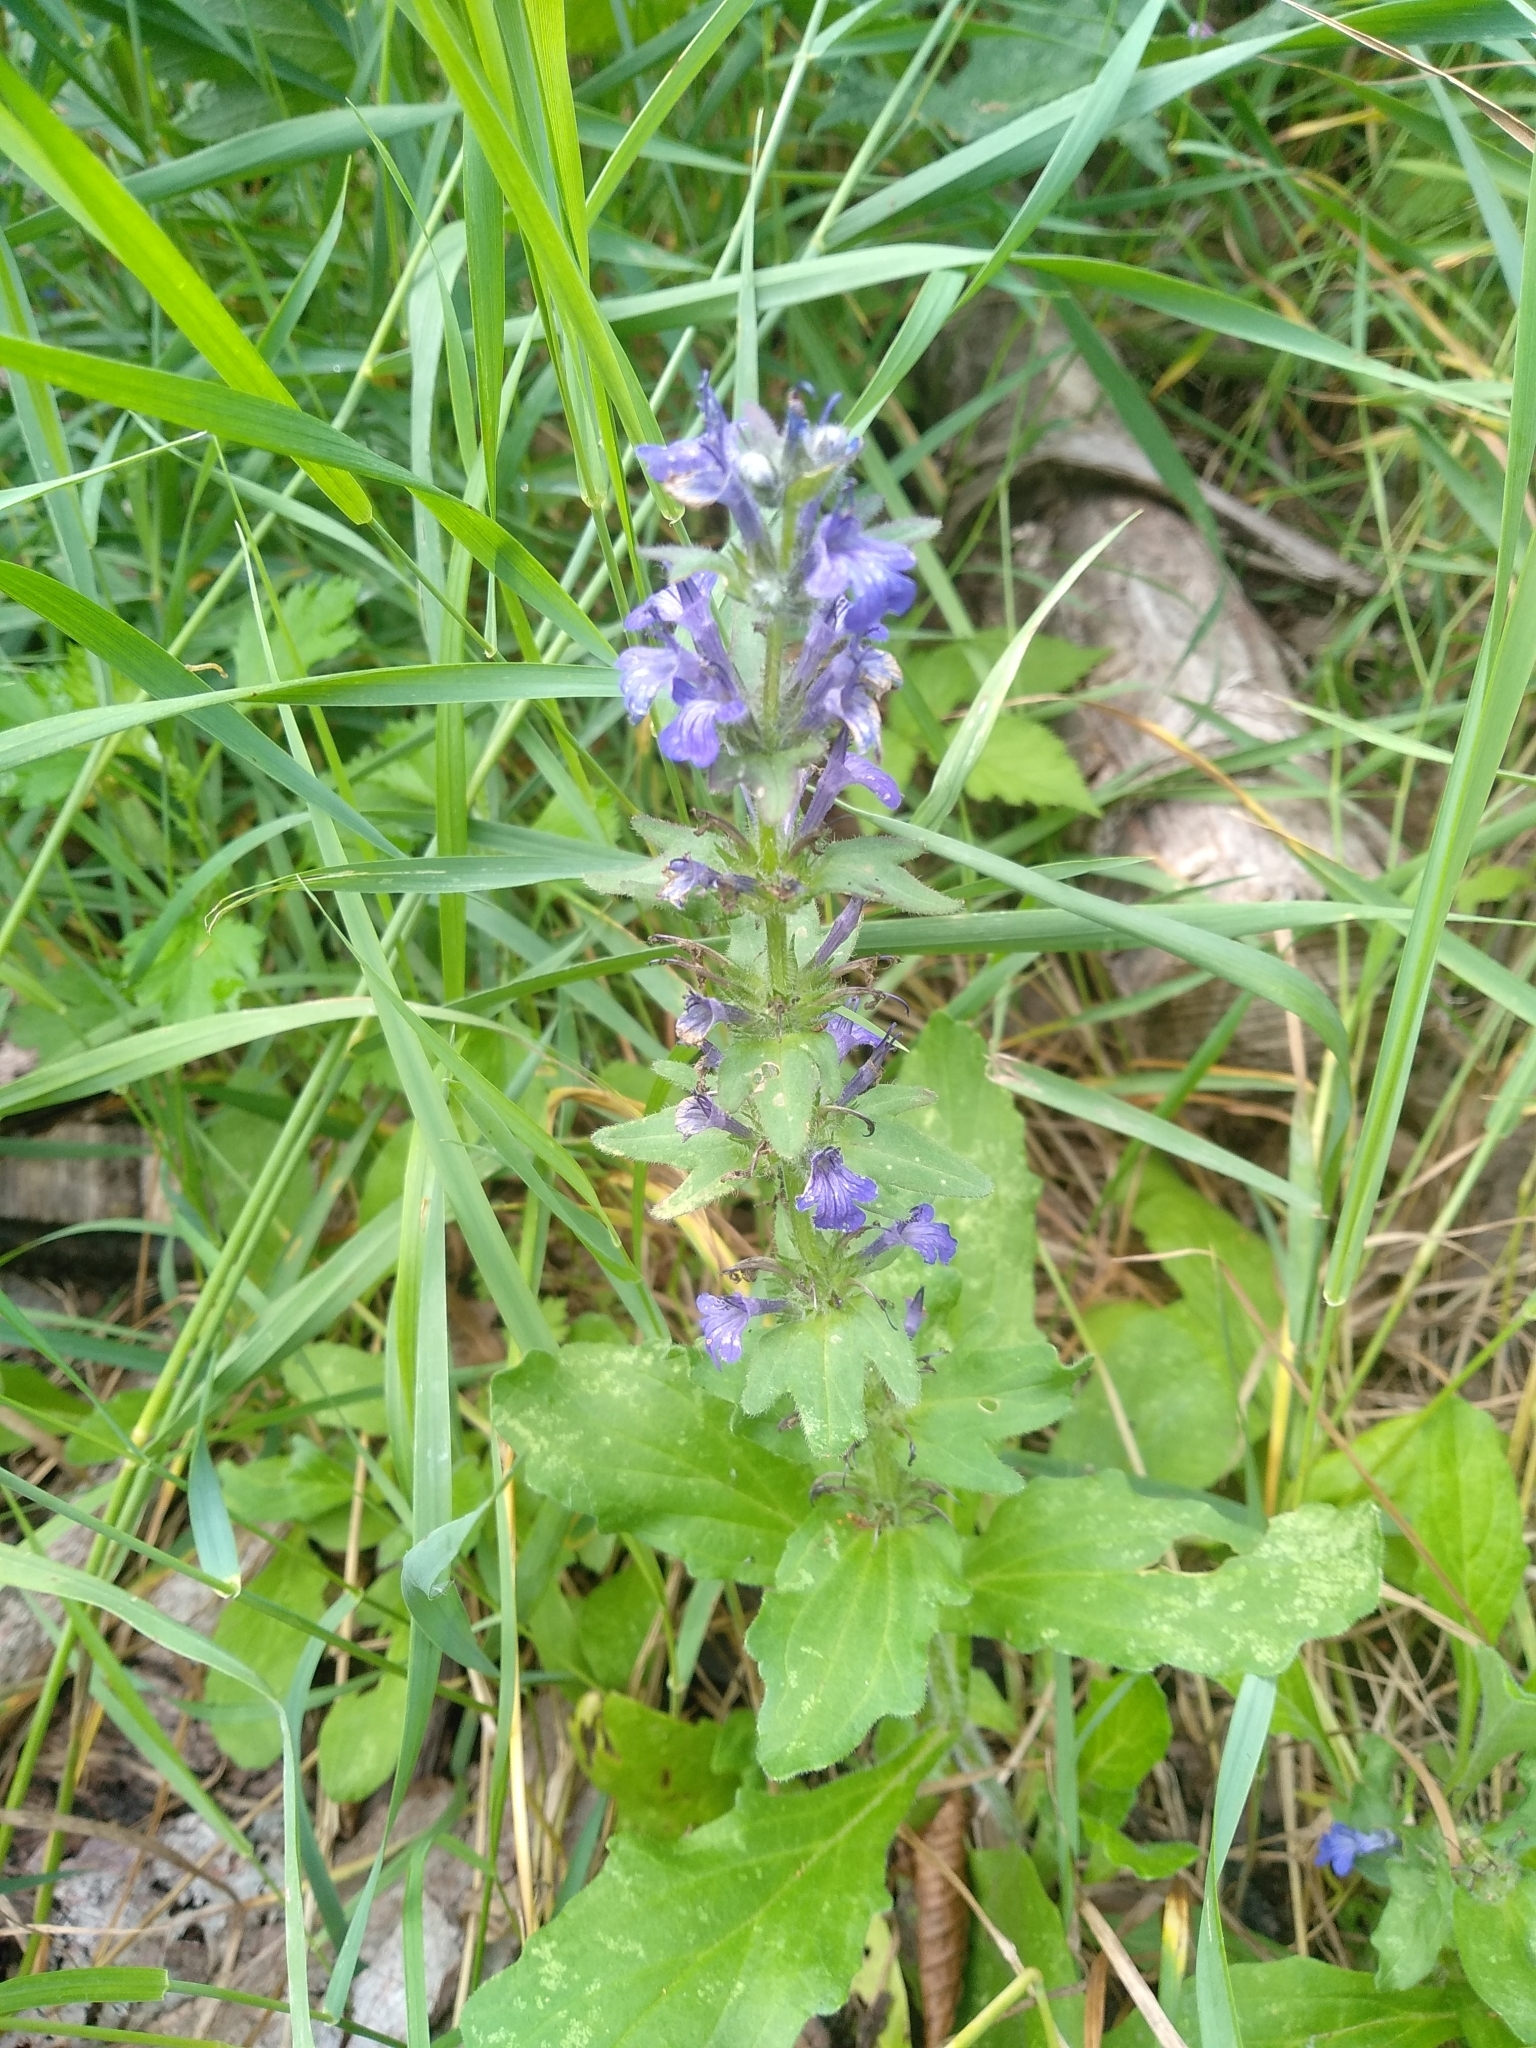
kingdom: Plantae
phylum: Tracheophyta
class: Magnoliopsida
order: Lamiales
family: Lamiaceae
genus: Ajuga
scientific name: Ajuga genevensis
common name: Blue bugle
